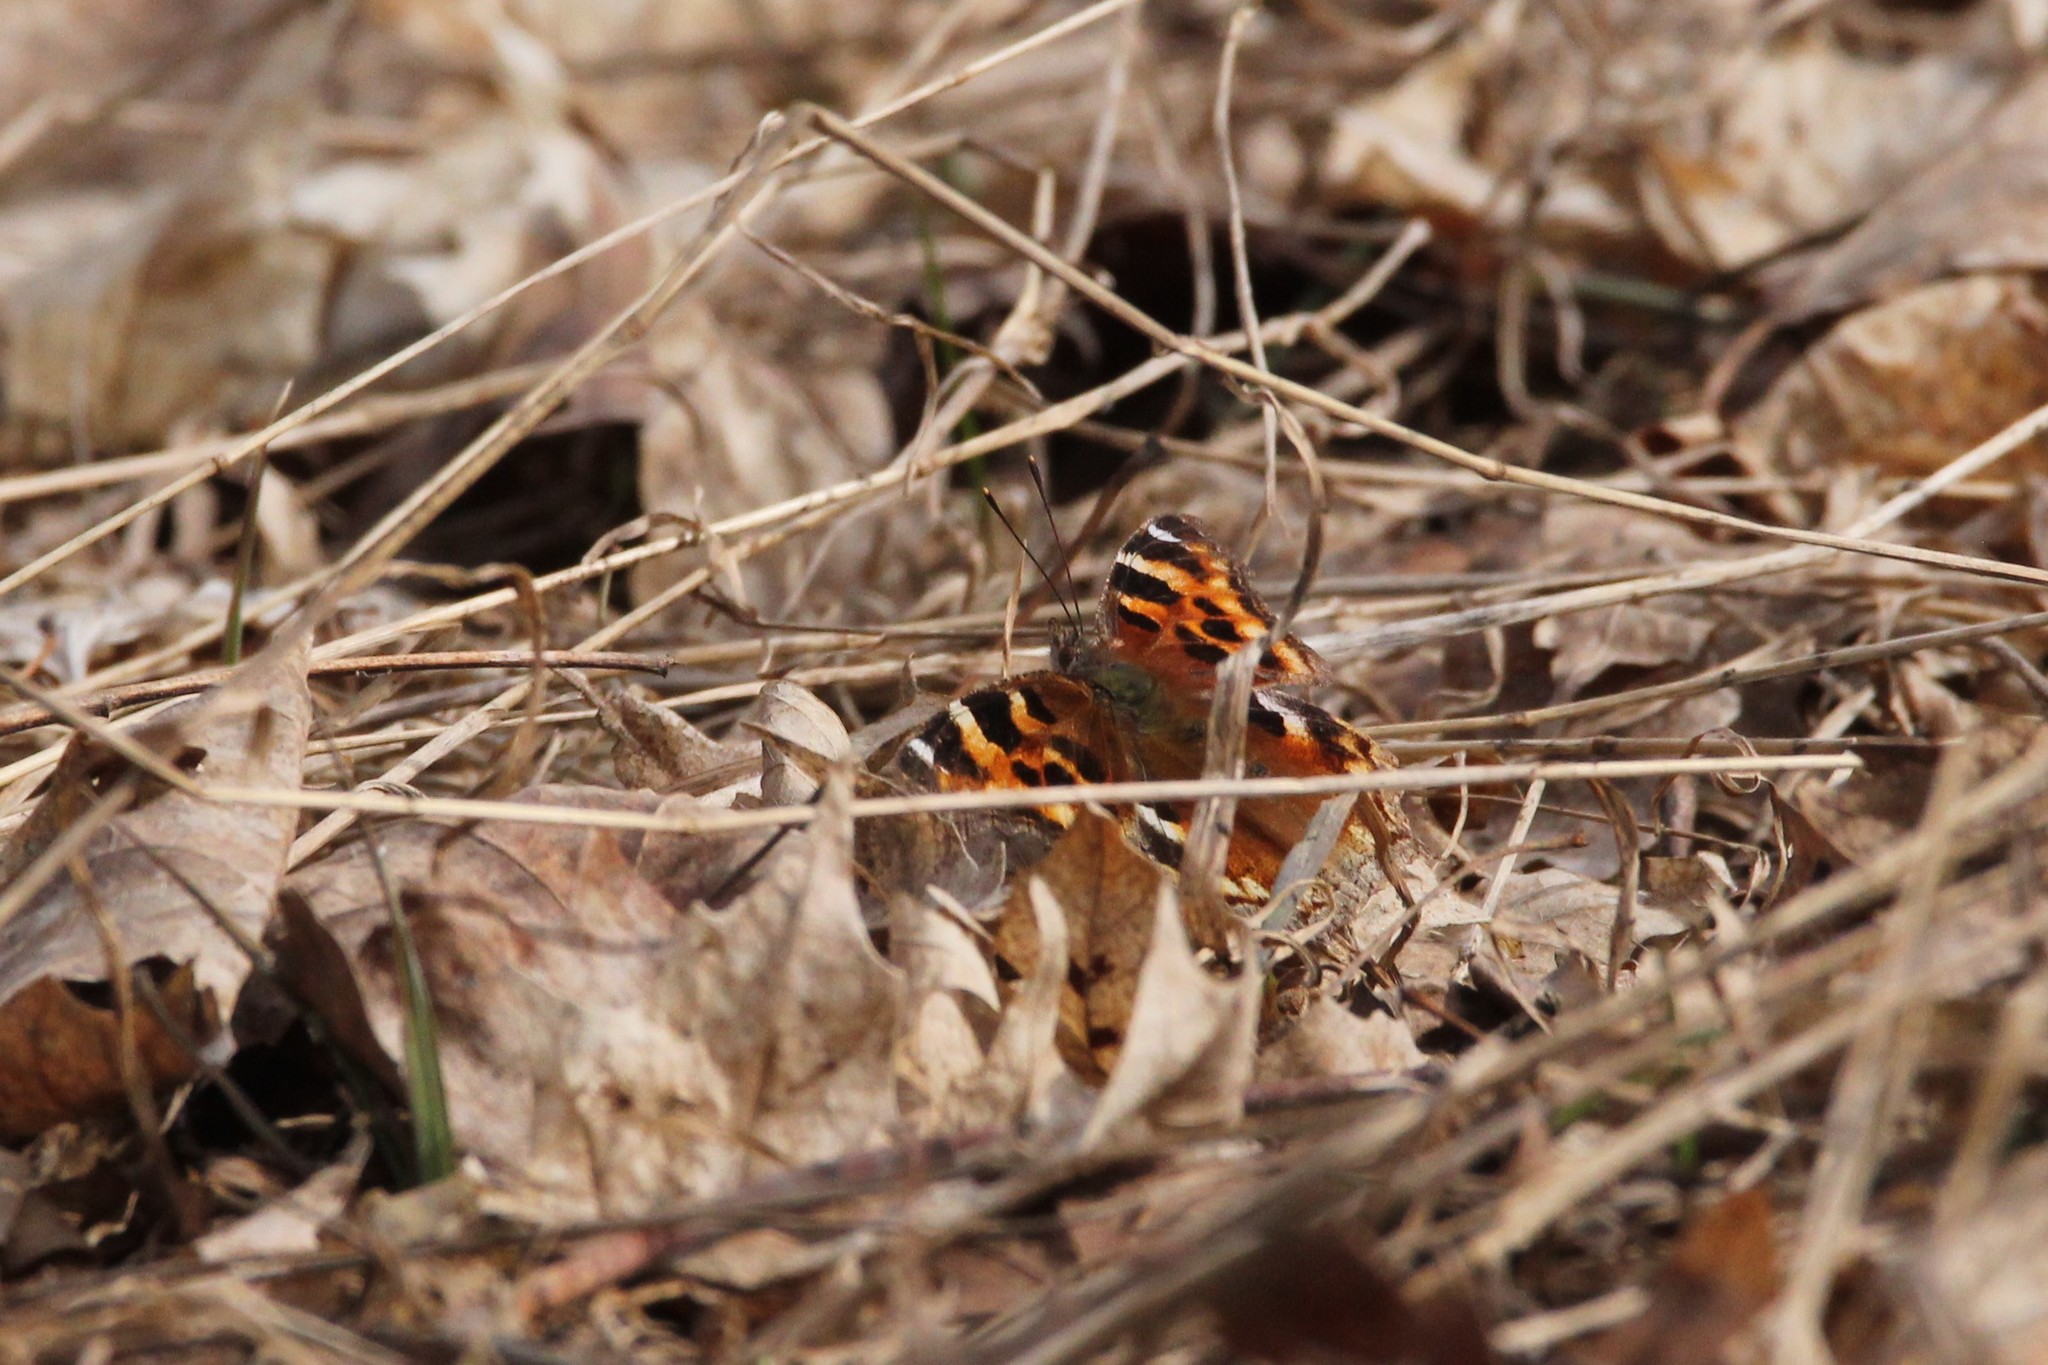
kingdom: Animalia
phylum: Arthropoda
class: Insecta
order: Lepidoptera
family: Nymphalidae
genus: Polygonia
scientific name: Polygonia vaualbum
